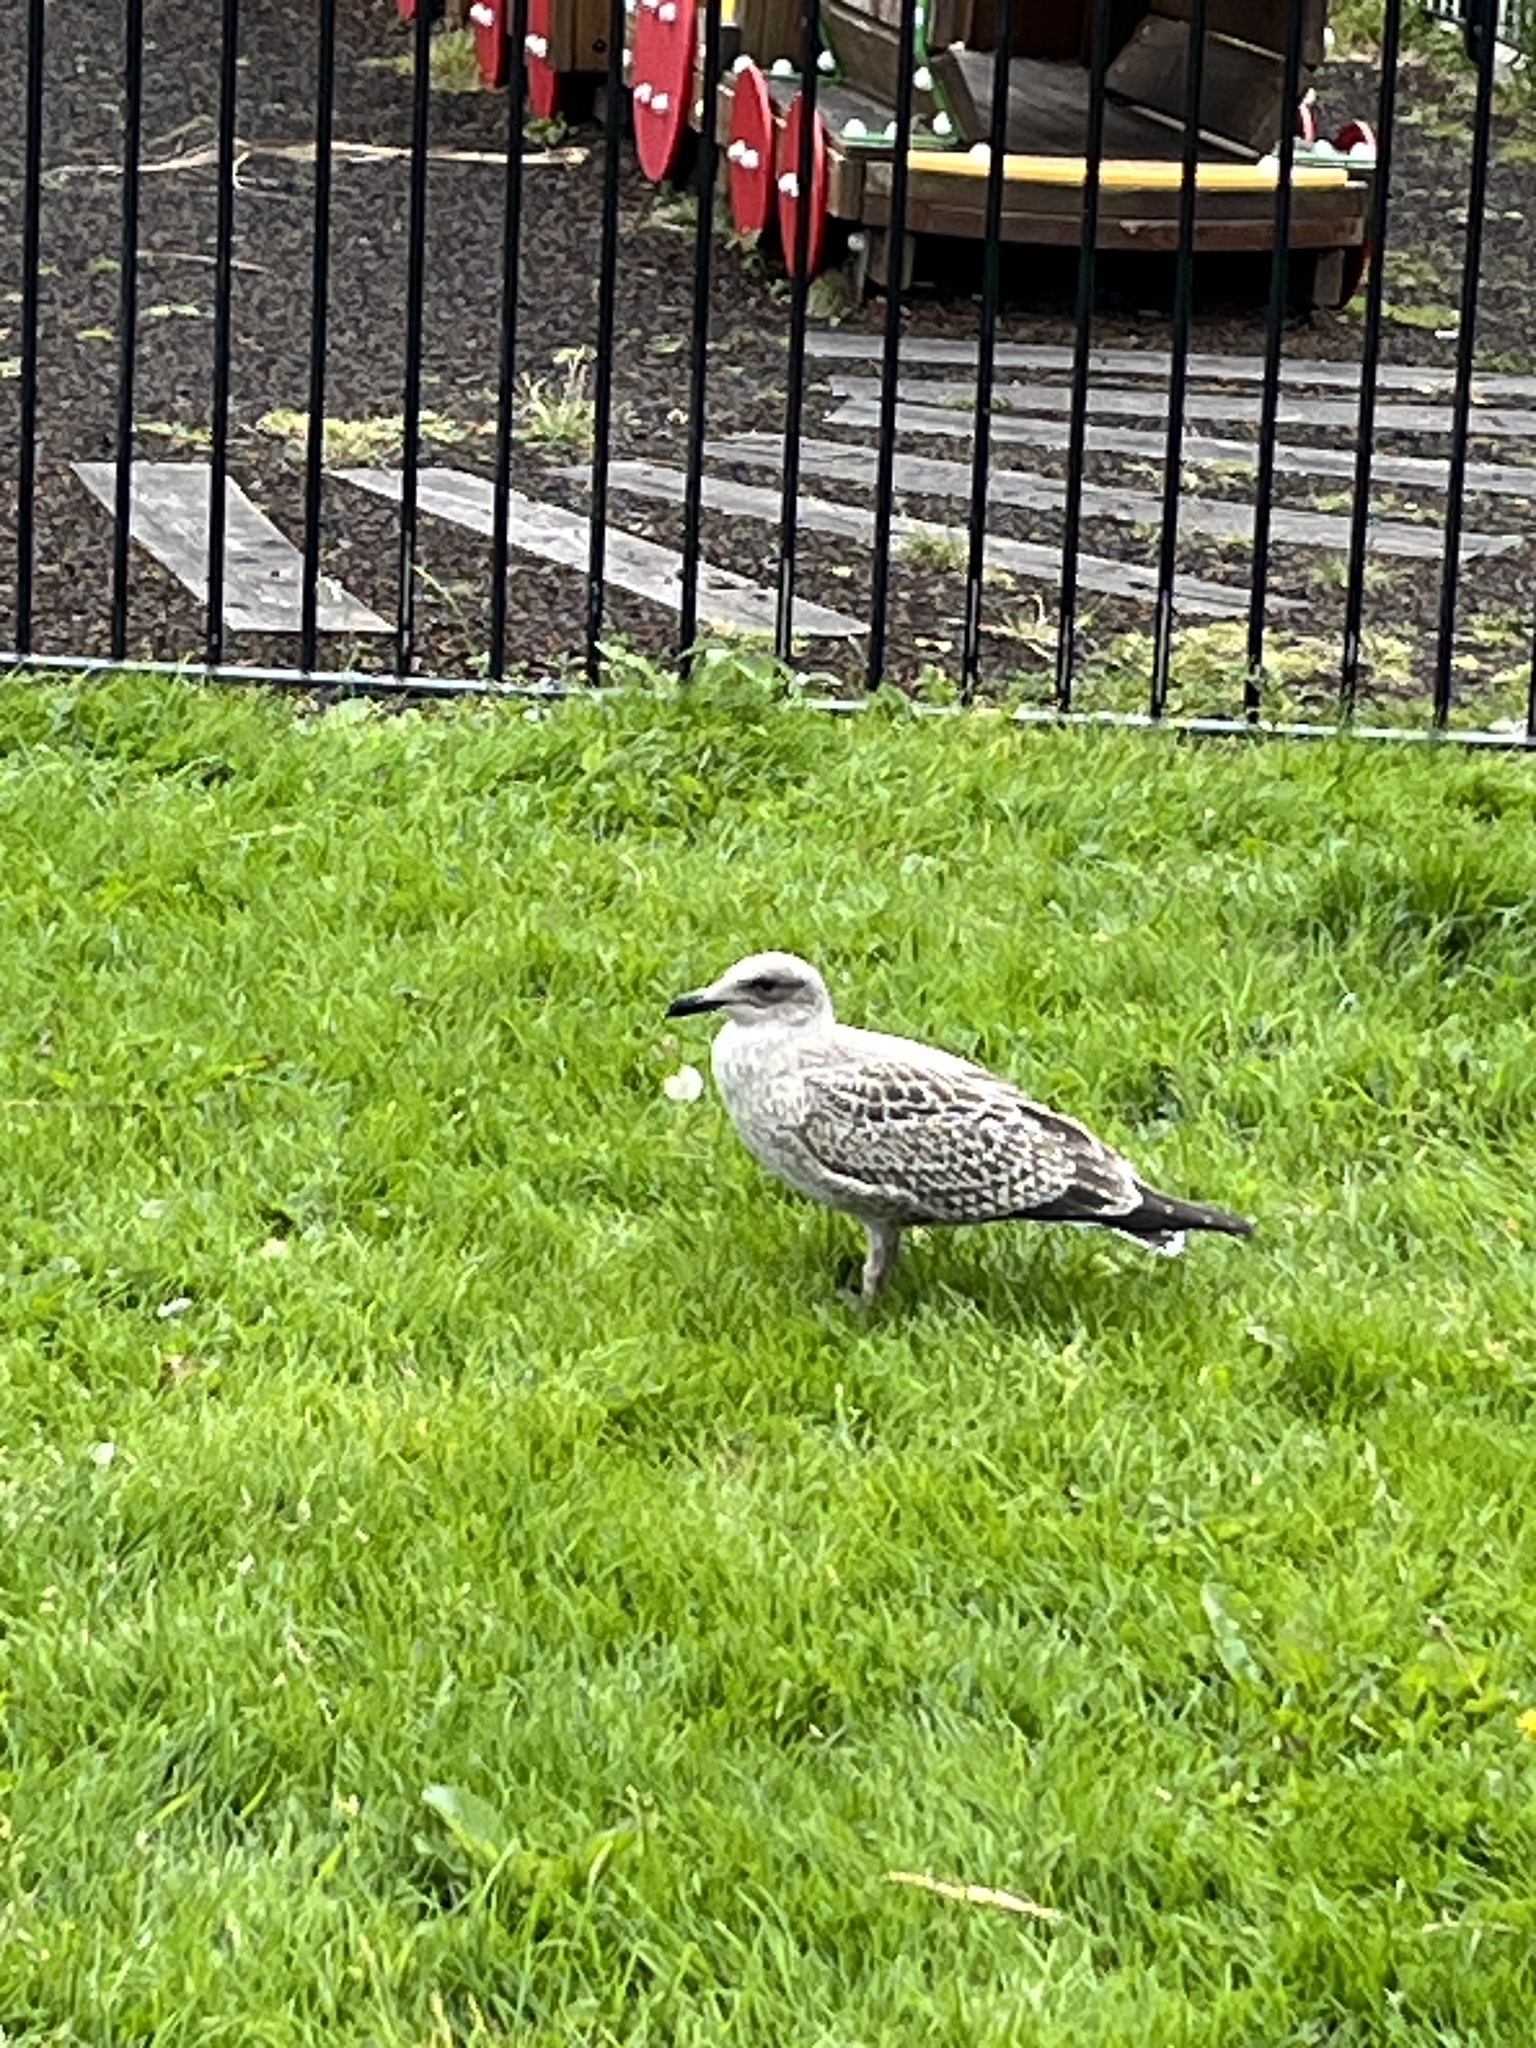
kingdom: Animalia
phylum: Chordata
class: Aves
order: Charadriiformes
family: Laridae
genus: Larus
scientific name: Larus argentatus
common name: Herring gull
